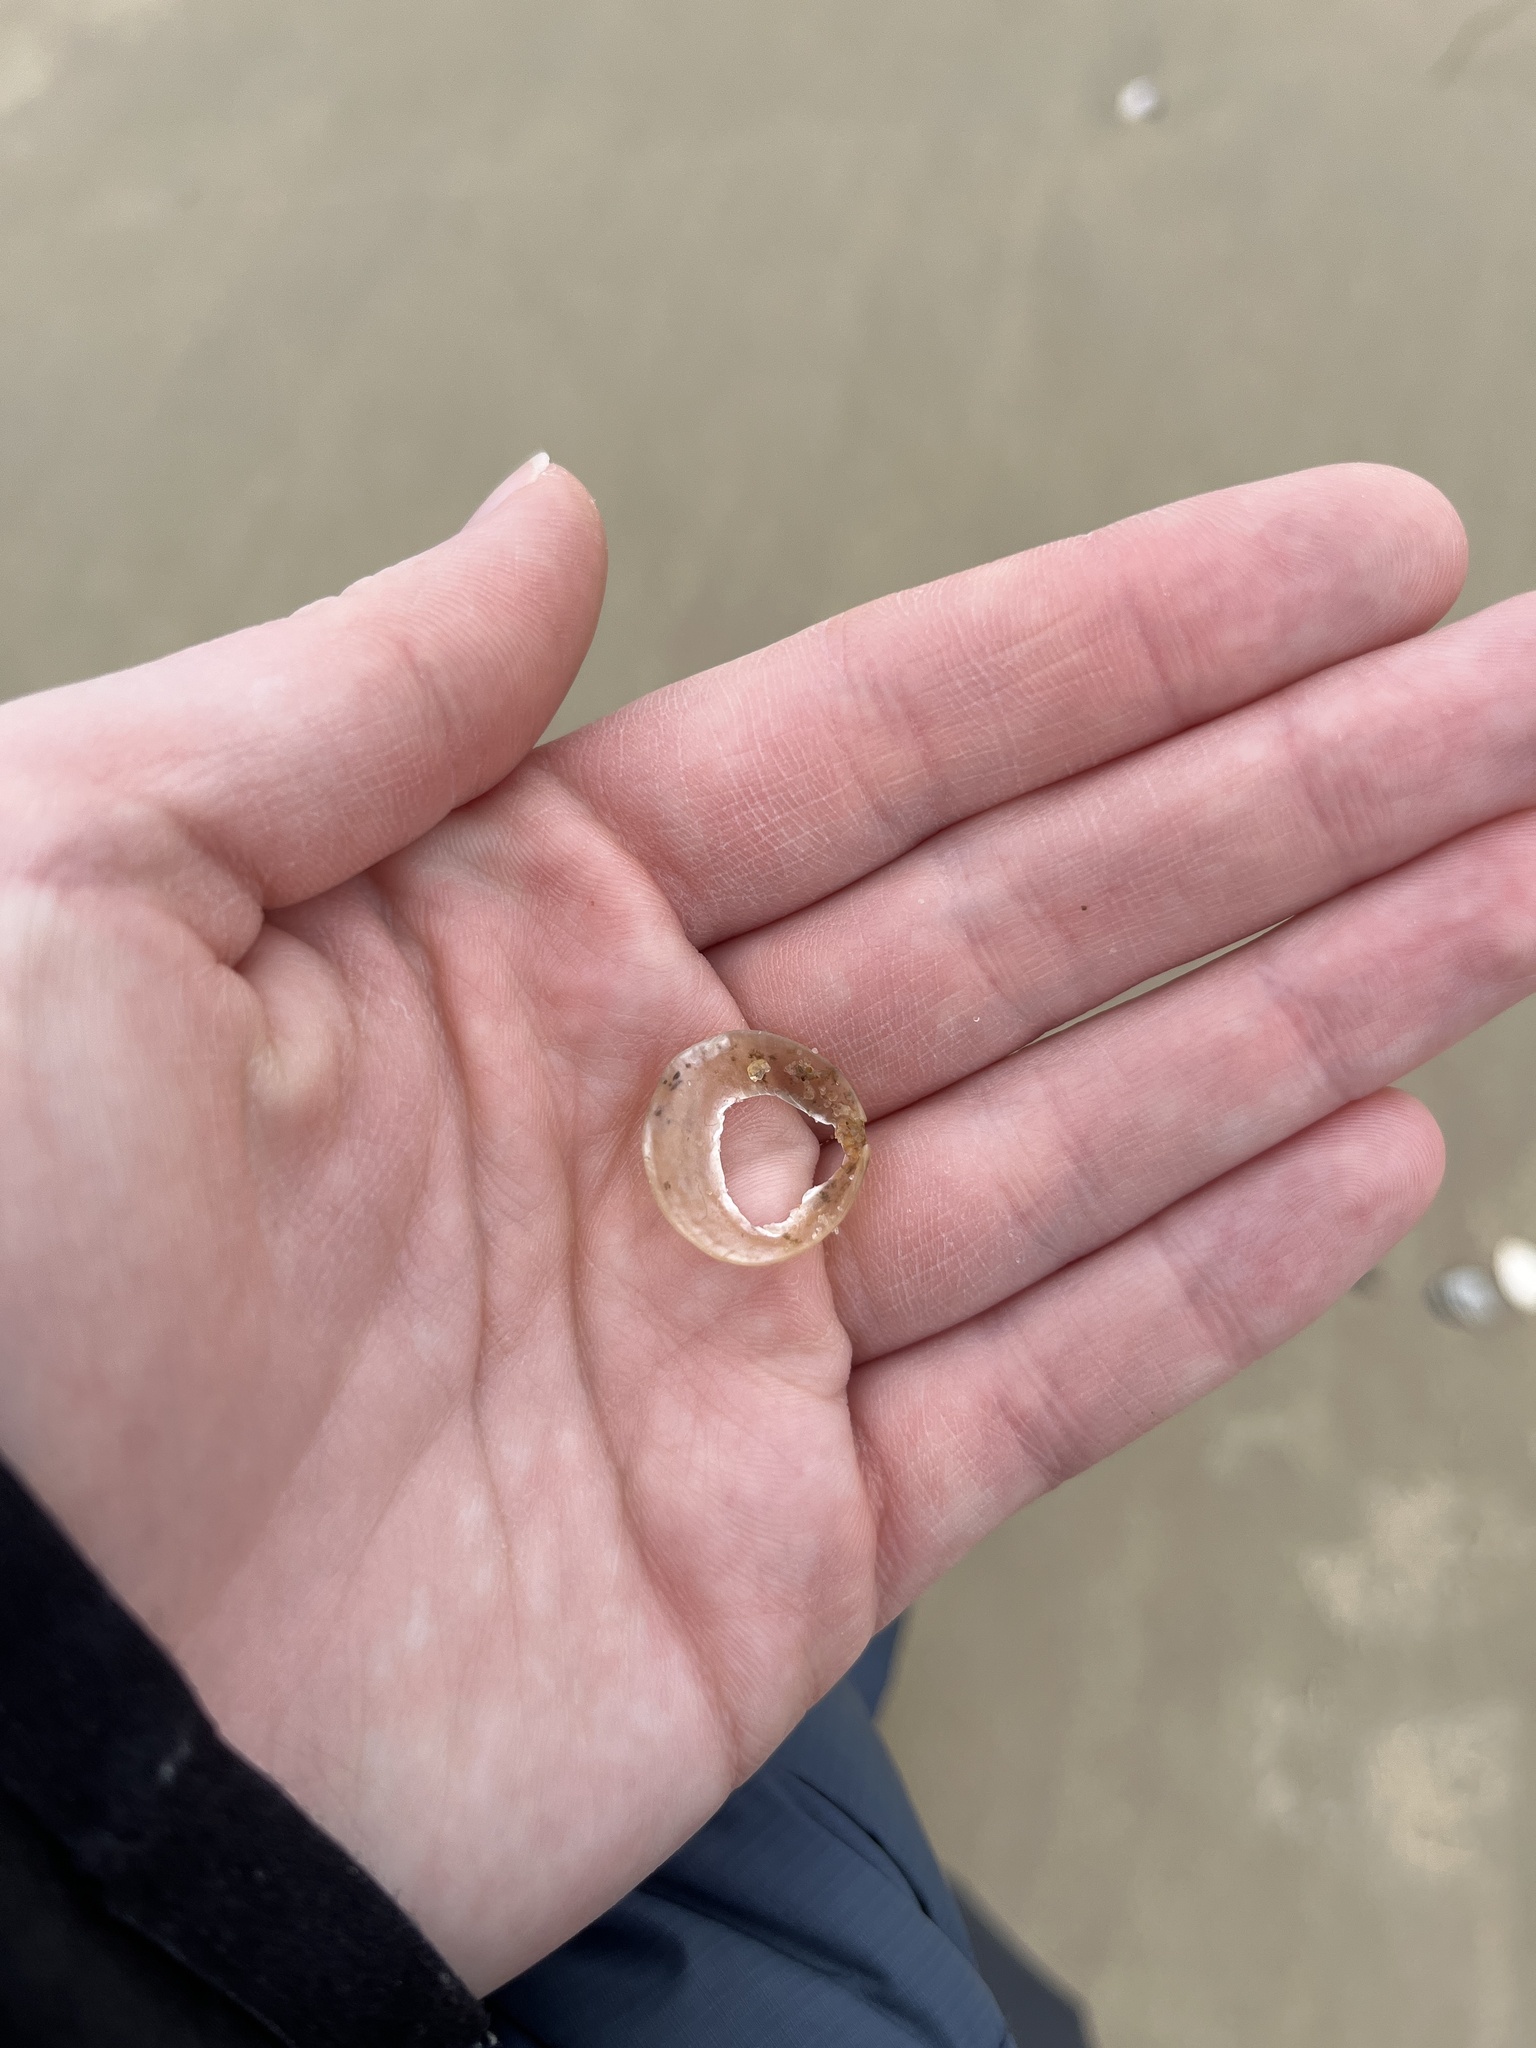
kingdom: Animalia
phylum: Mollusca
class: Bivalvia
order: Pectinida
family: Anomiidae
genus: Anomia
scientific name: Anomia simplex
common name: Common jingle shell
